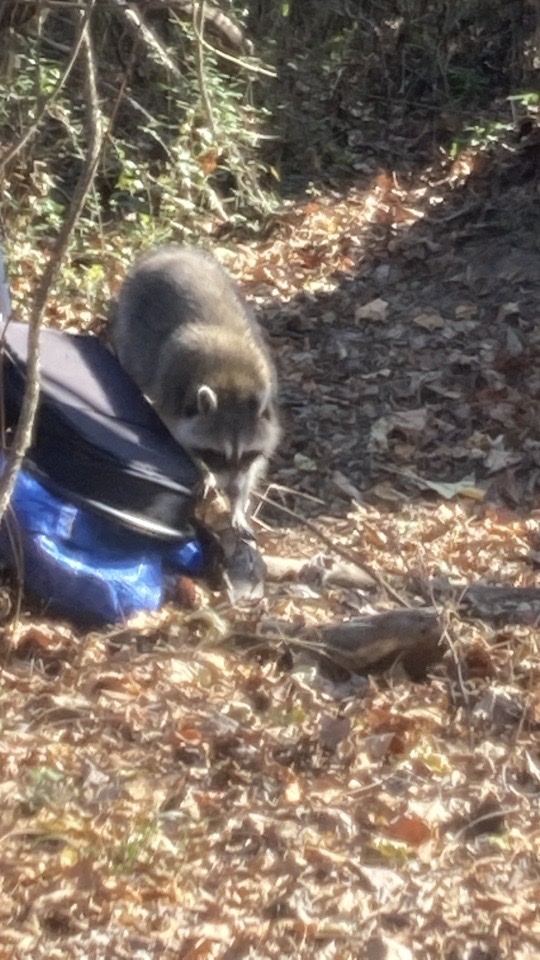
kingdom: Animalia
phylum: Chordata
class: Mammalia
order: Carnivora
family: Procyonidae
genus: Procyon
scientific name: Procyon lotor
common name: Raccoon
